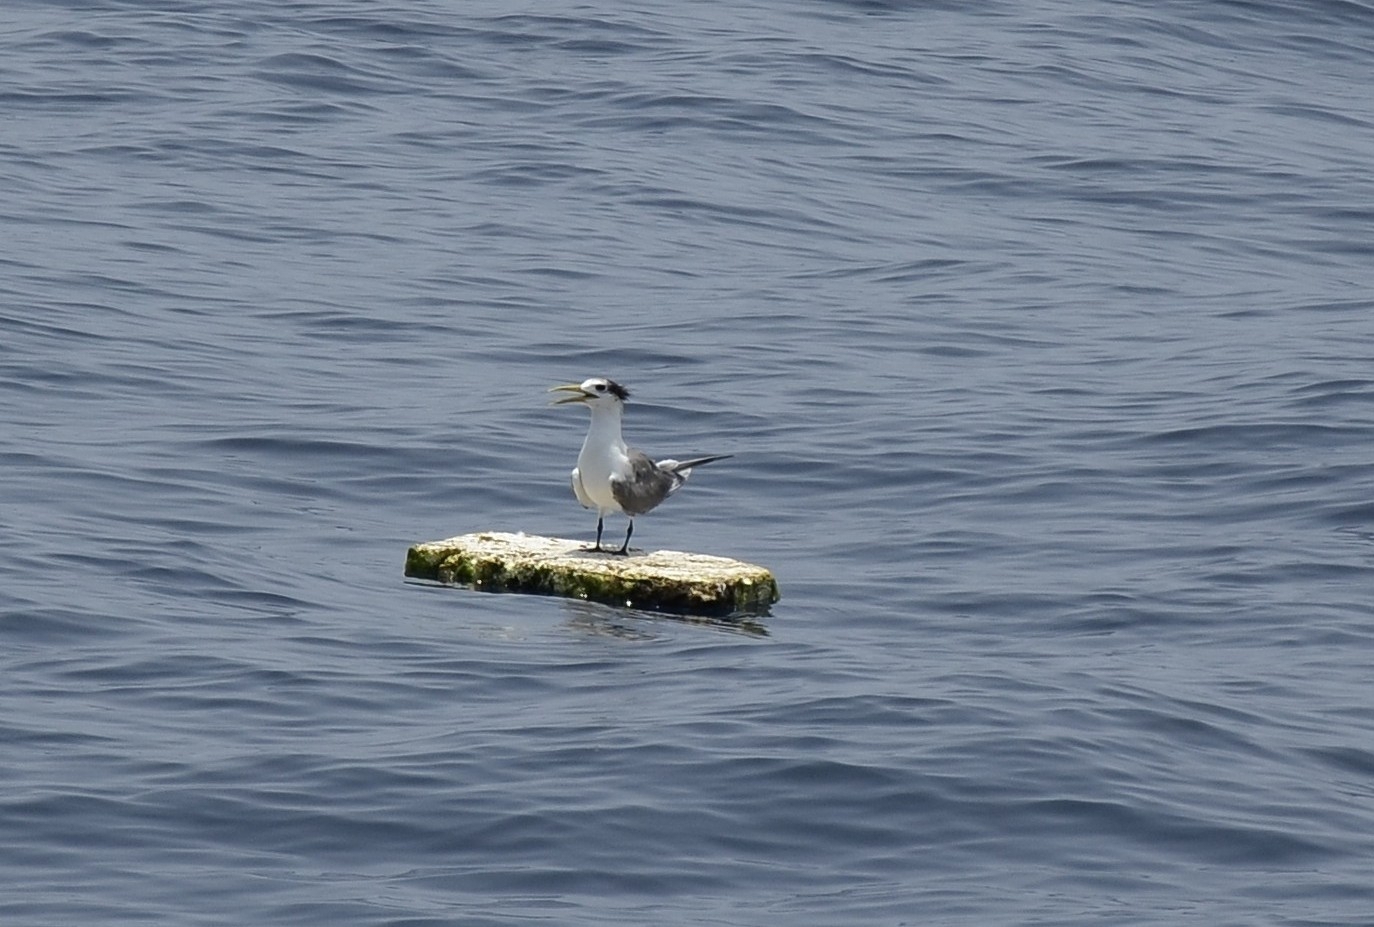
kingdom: Animalia
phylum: Chordata
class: Aves
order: Charadriiformes
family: Laridae
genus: Thalasseus
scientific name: Thalasseus bergii
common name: Greater crested tern
